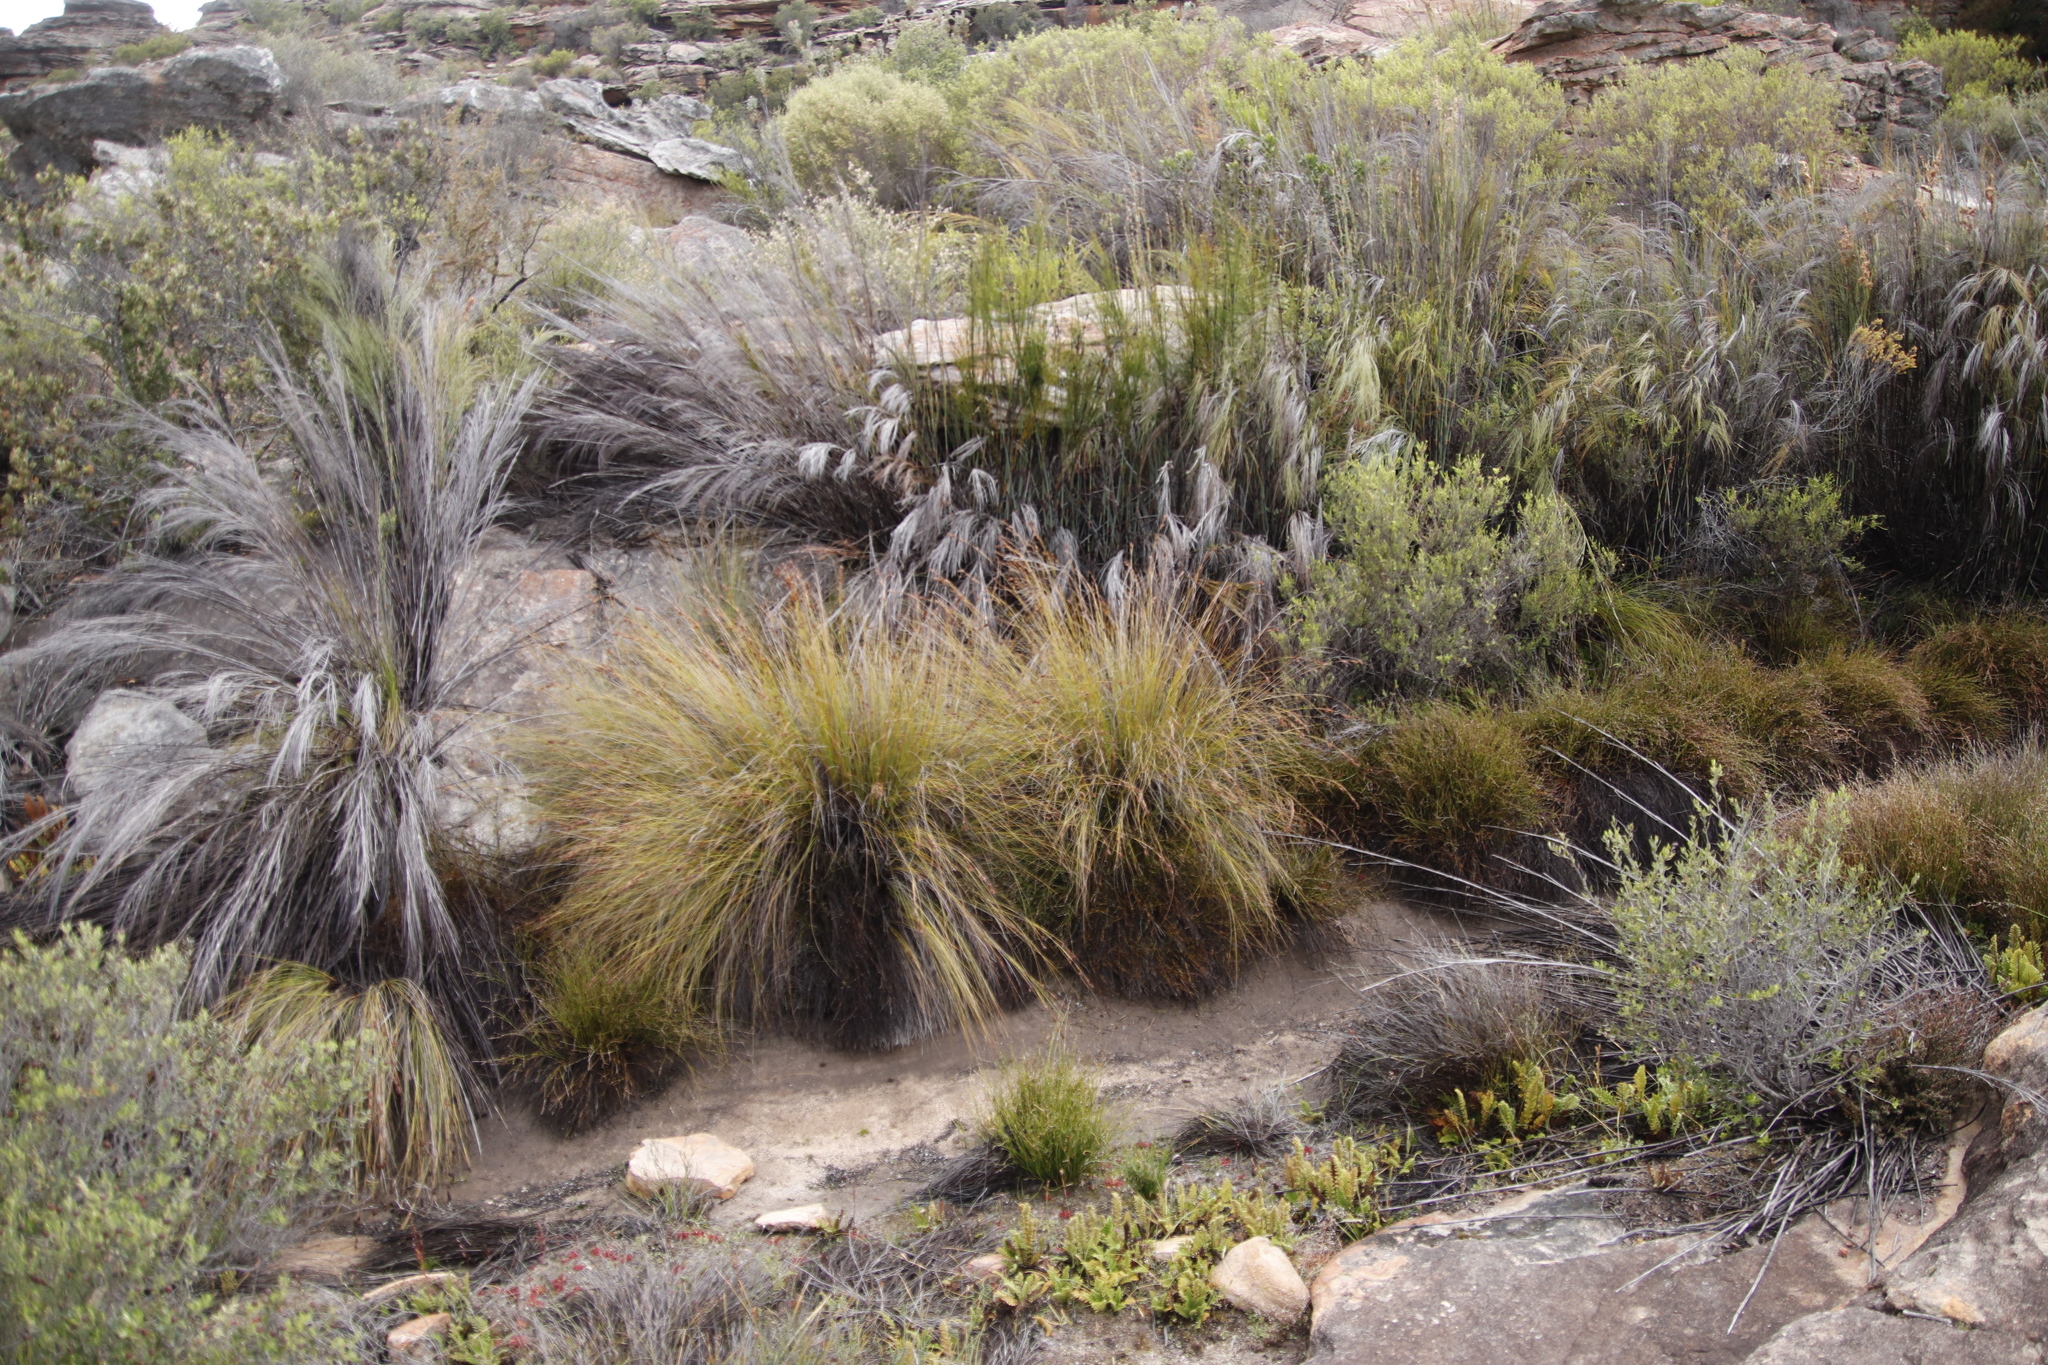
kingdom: Plantae
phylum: Tracheophyta
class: Liliopsida
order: Poales
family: Restionaceae
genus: Cannomois
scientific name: Cannomois robusta
